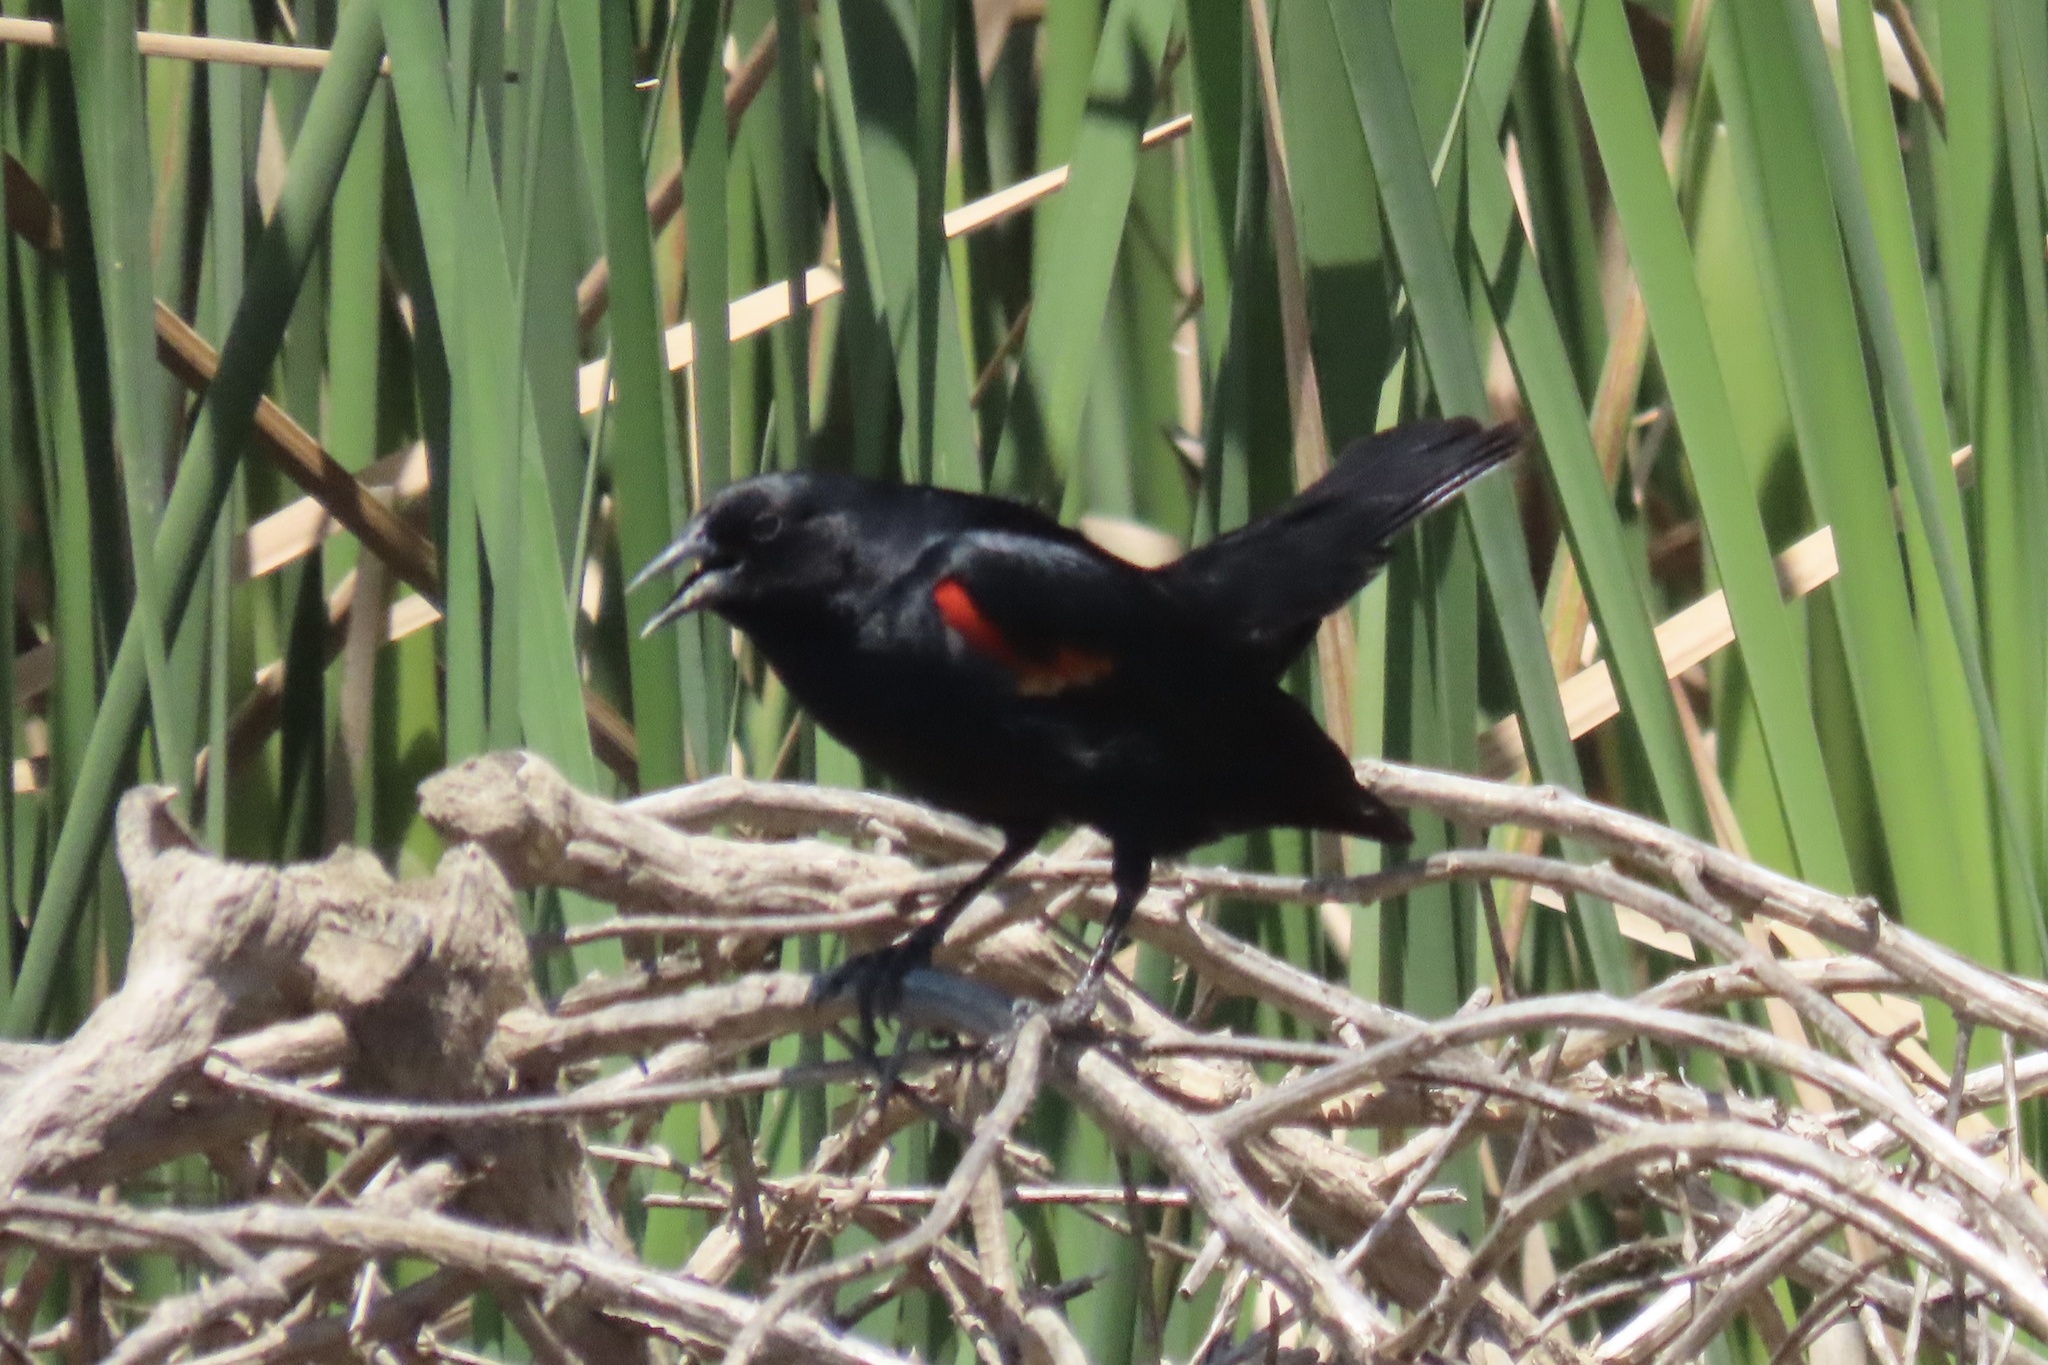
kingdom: Animalia
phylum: Chordata
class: Aves
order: Passeriformes
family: Icteridae
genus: Agelaius
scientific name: Agelaius phoeniceus
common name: Red-winged blackbird
